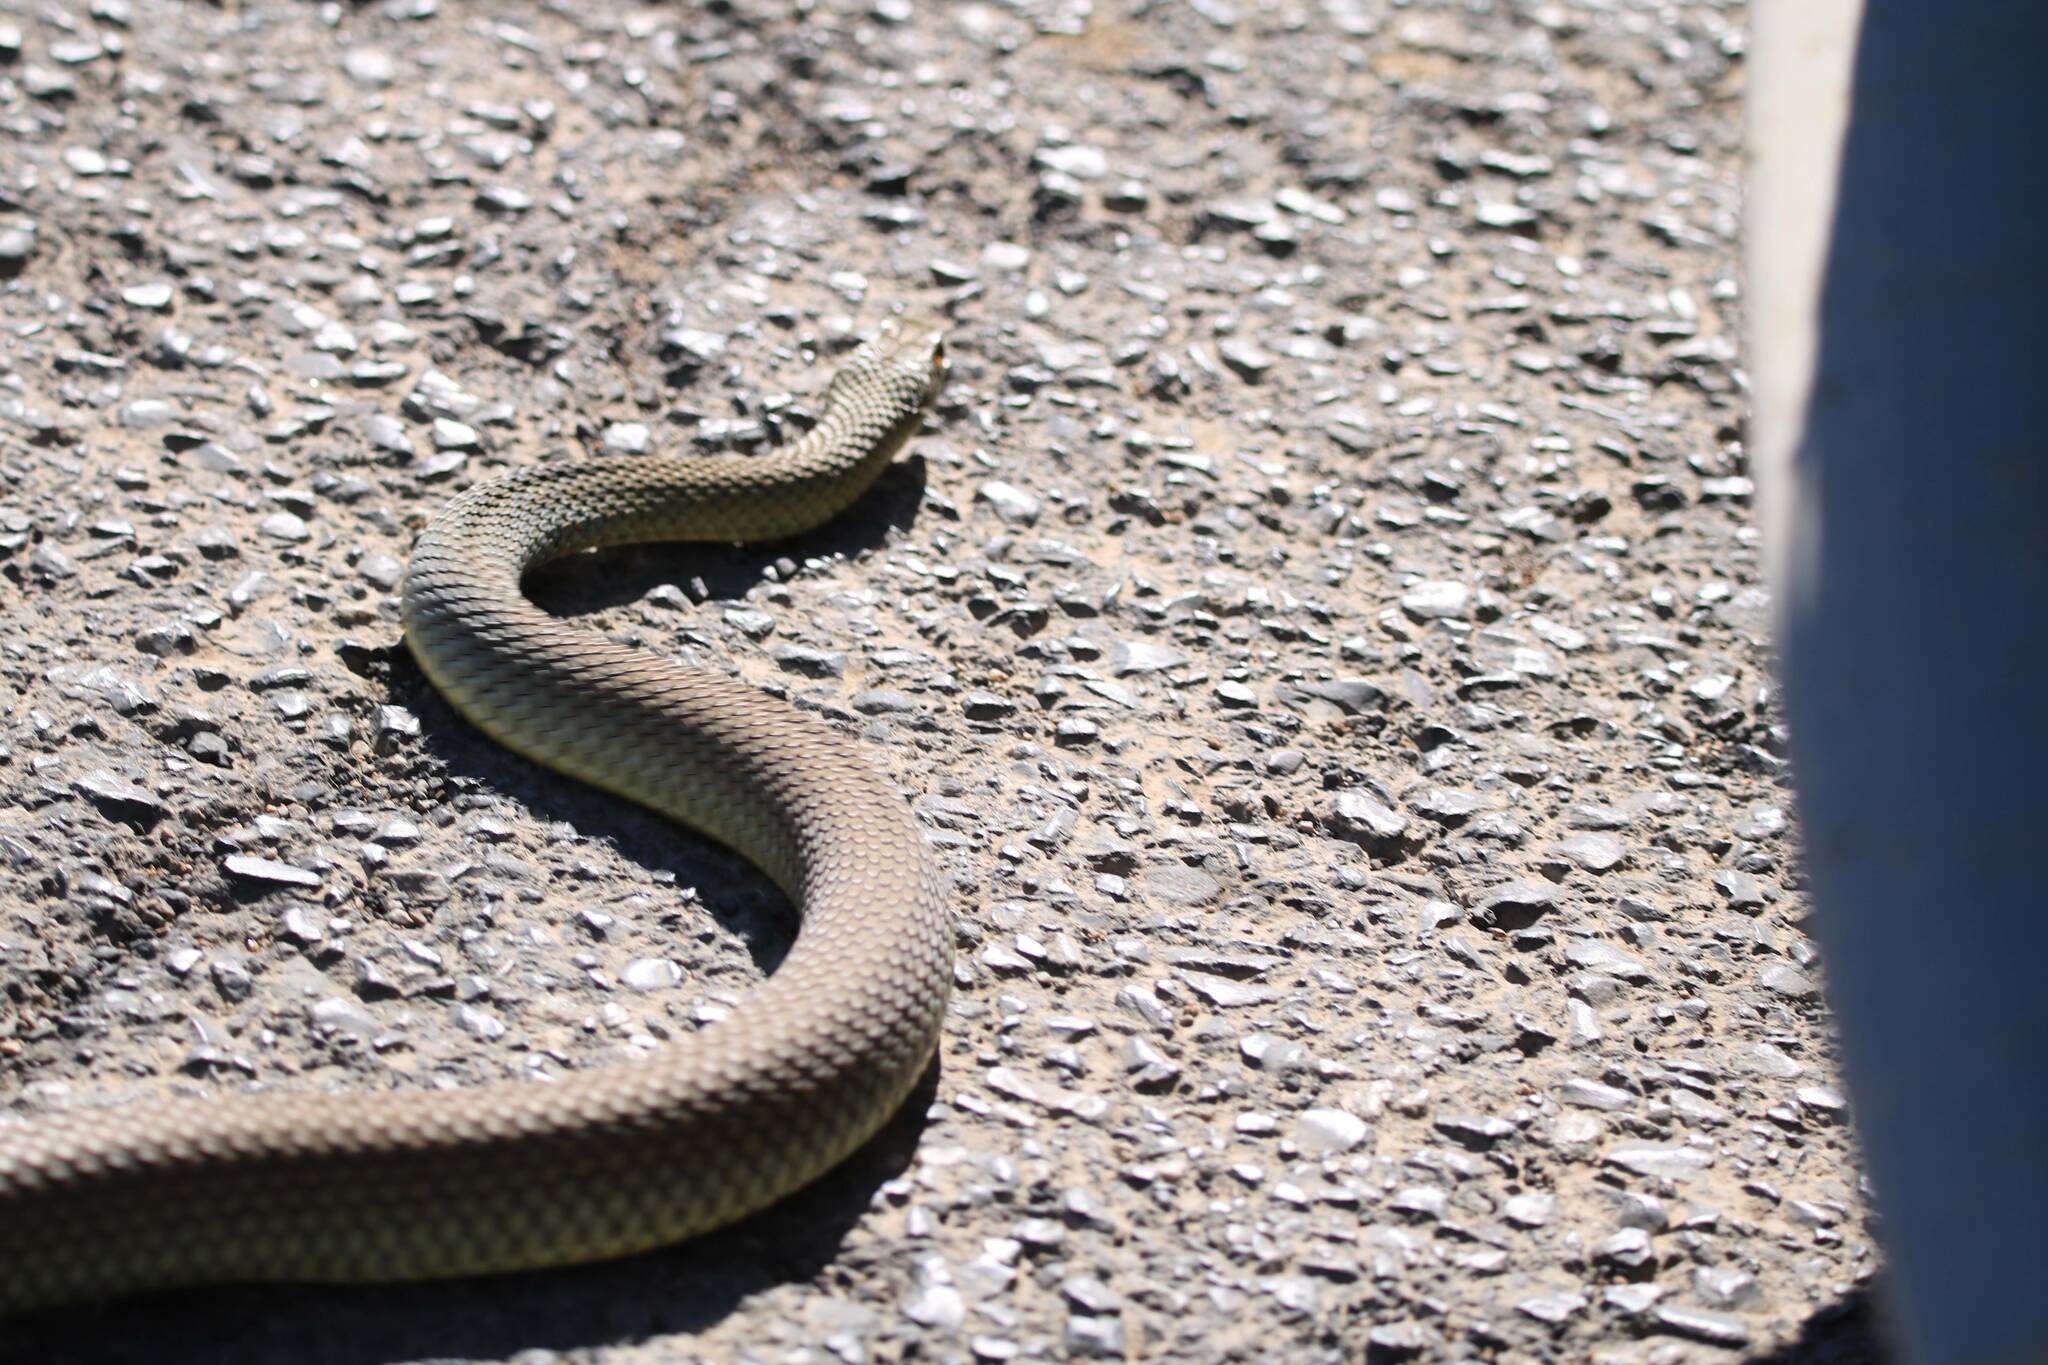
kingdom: Animalia
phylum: Chordata
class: Squamata
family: Psammophiidae
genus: Malpolon
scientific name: Malpolon insignitus
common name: Eastern montpellier snake
